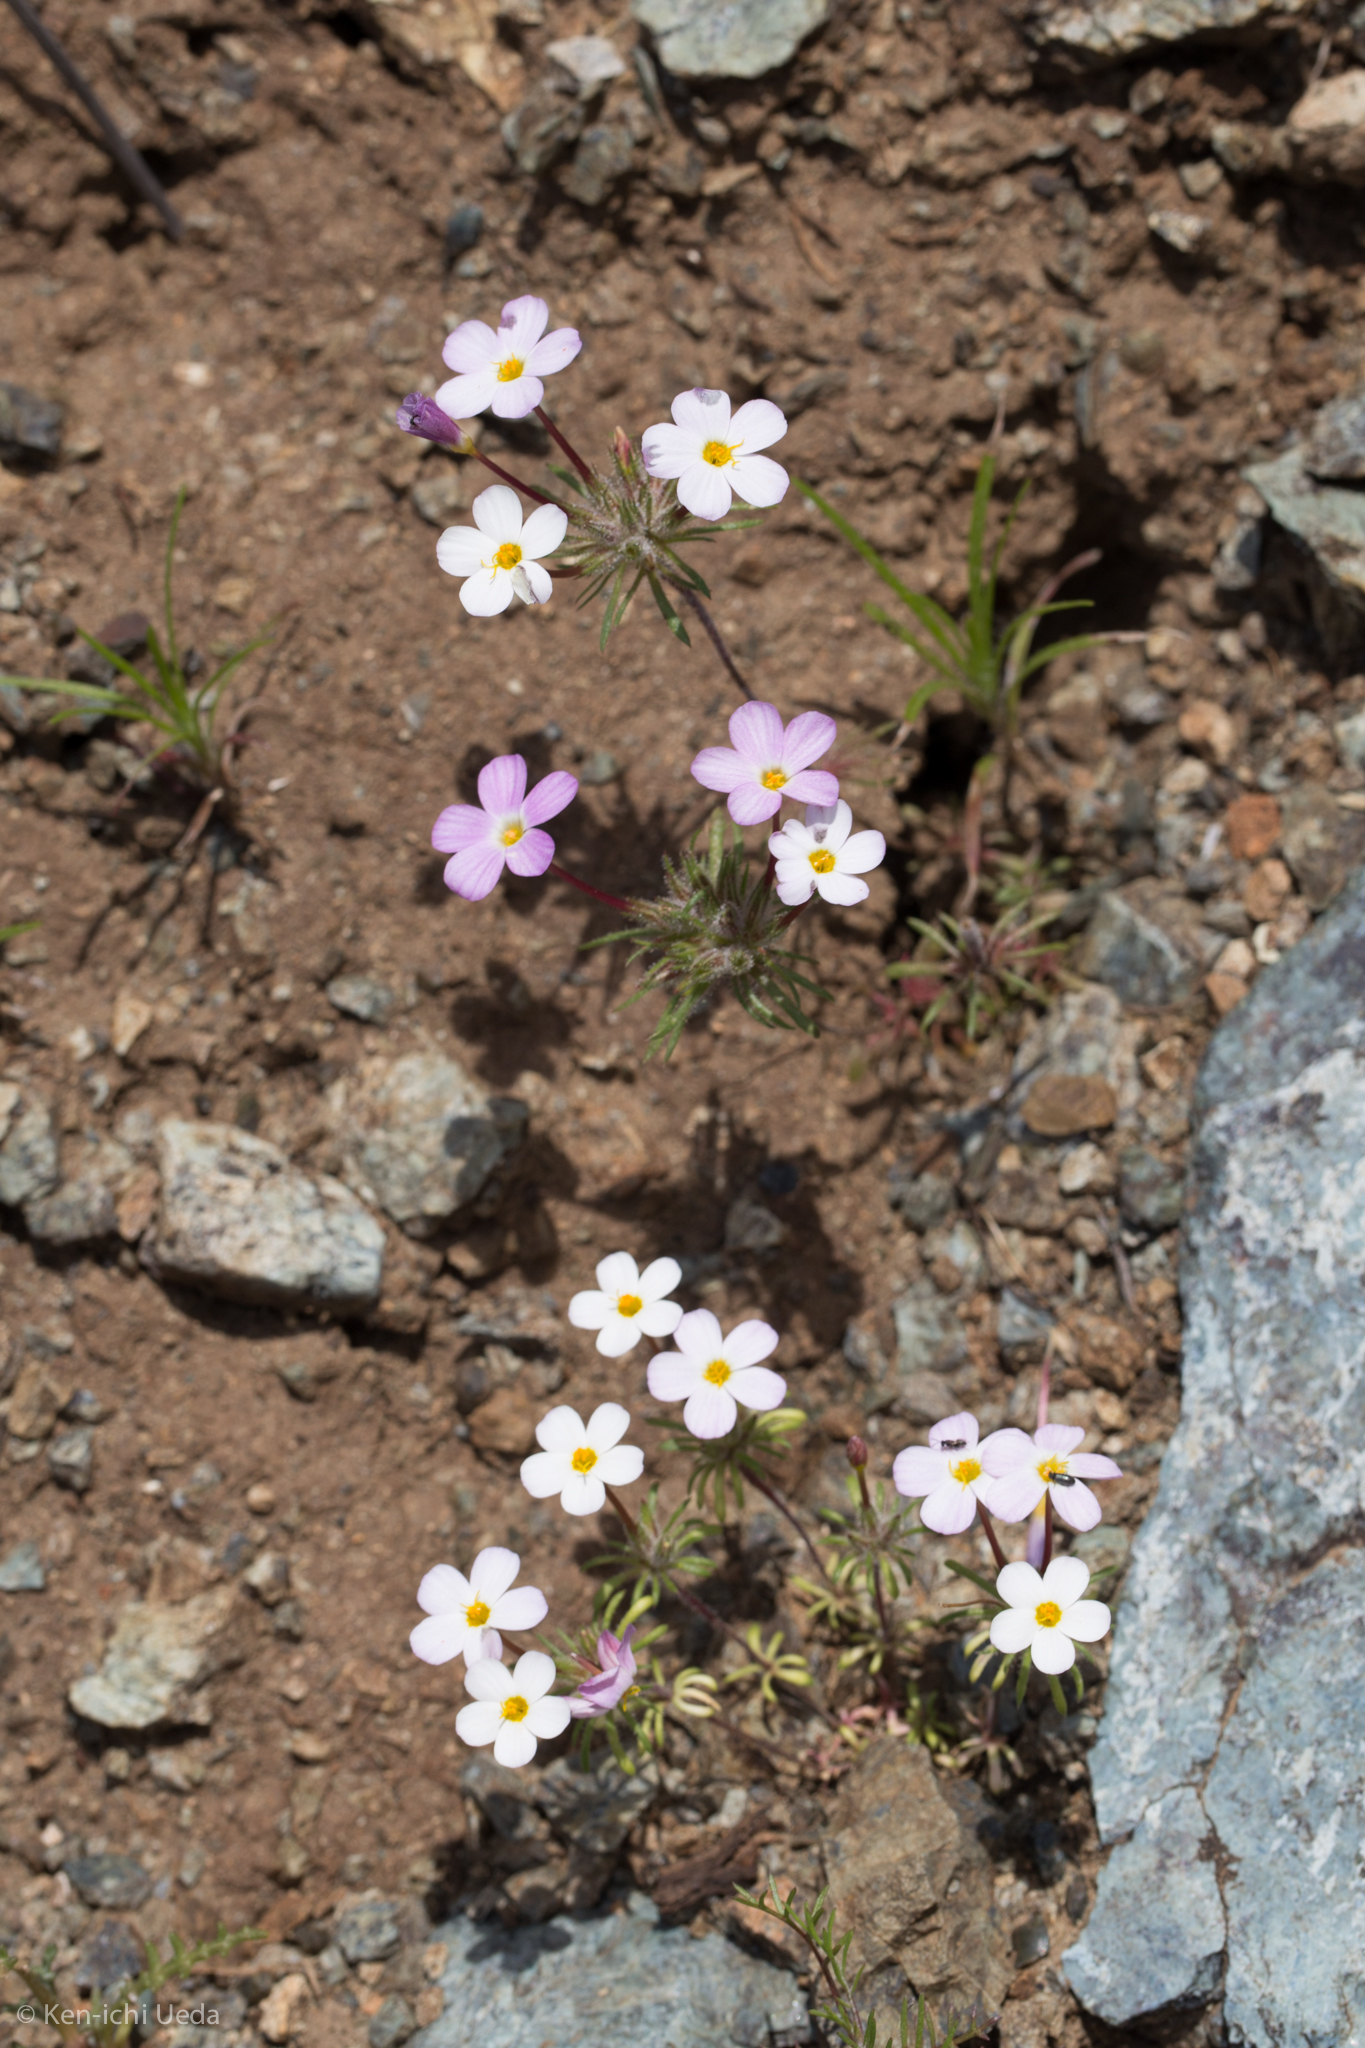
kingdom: Plantae
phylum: Tracheophyta
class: Magnoliopsida
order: Ericales
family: Polemoniaceae
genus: Leptosiphon
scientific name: Leptosiphon parviflorus
